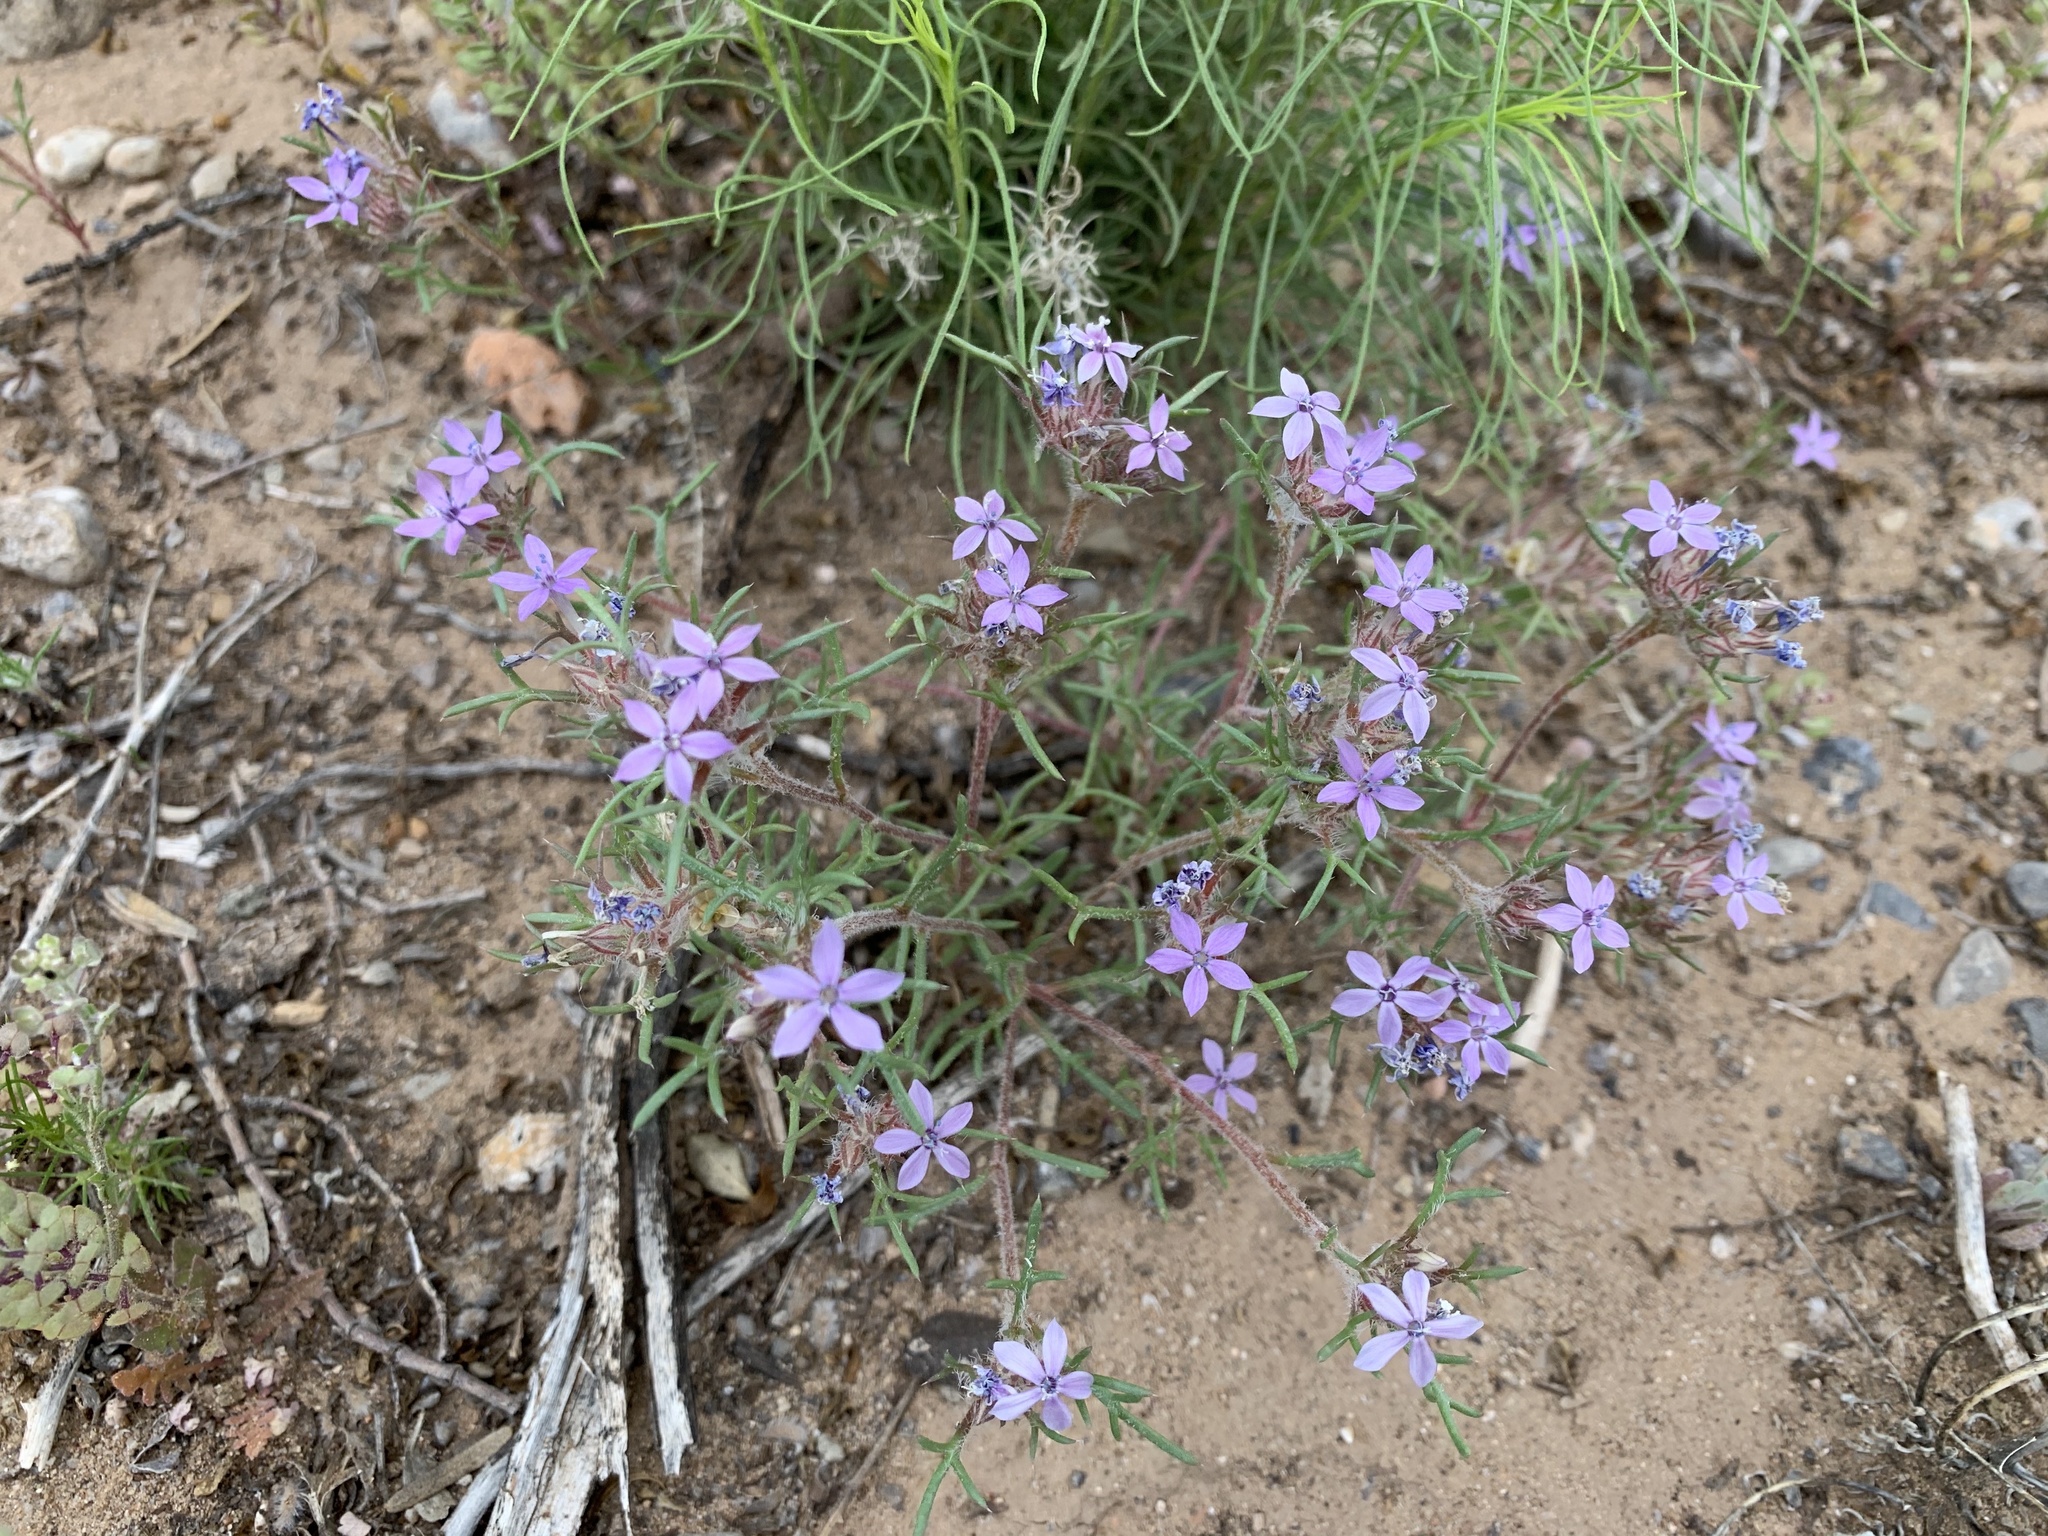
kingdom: Plantae
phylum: Tracheophyta
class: Magnoliopsida
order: Ericales
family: Polemoniaceae
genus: Ipomopsis
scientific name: Ipomopsis pumila
